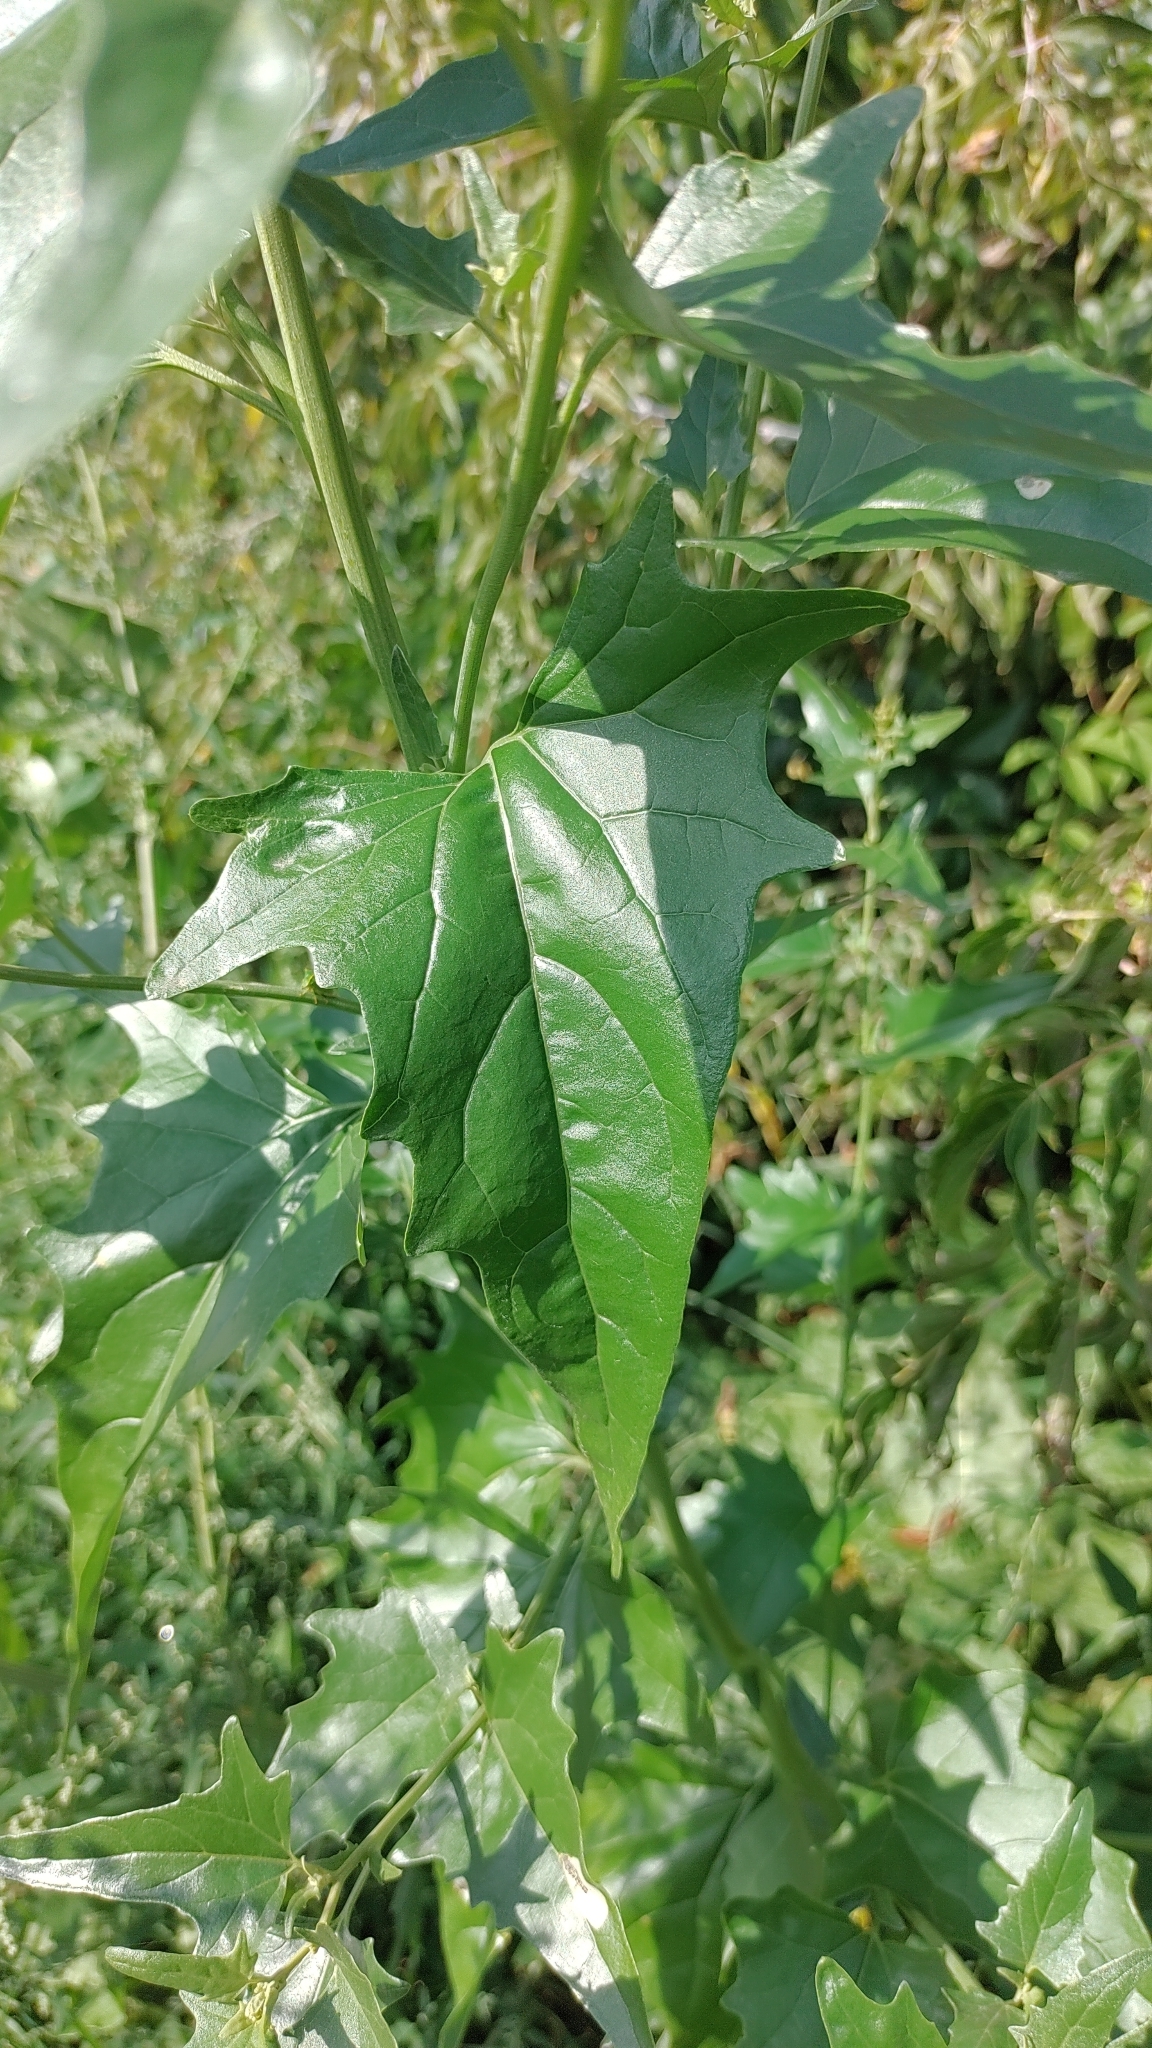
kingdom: Plantae
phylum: Tracheophyta
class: Magnoliopsida
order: Caryophyllales
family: Amaranthaceae
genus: Atriplex
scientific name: Atriplex sagittata
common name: Purple orache
